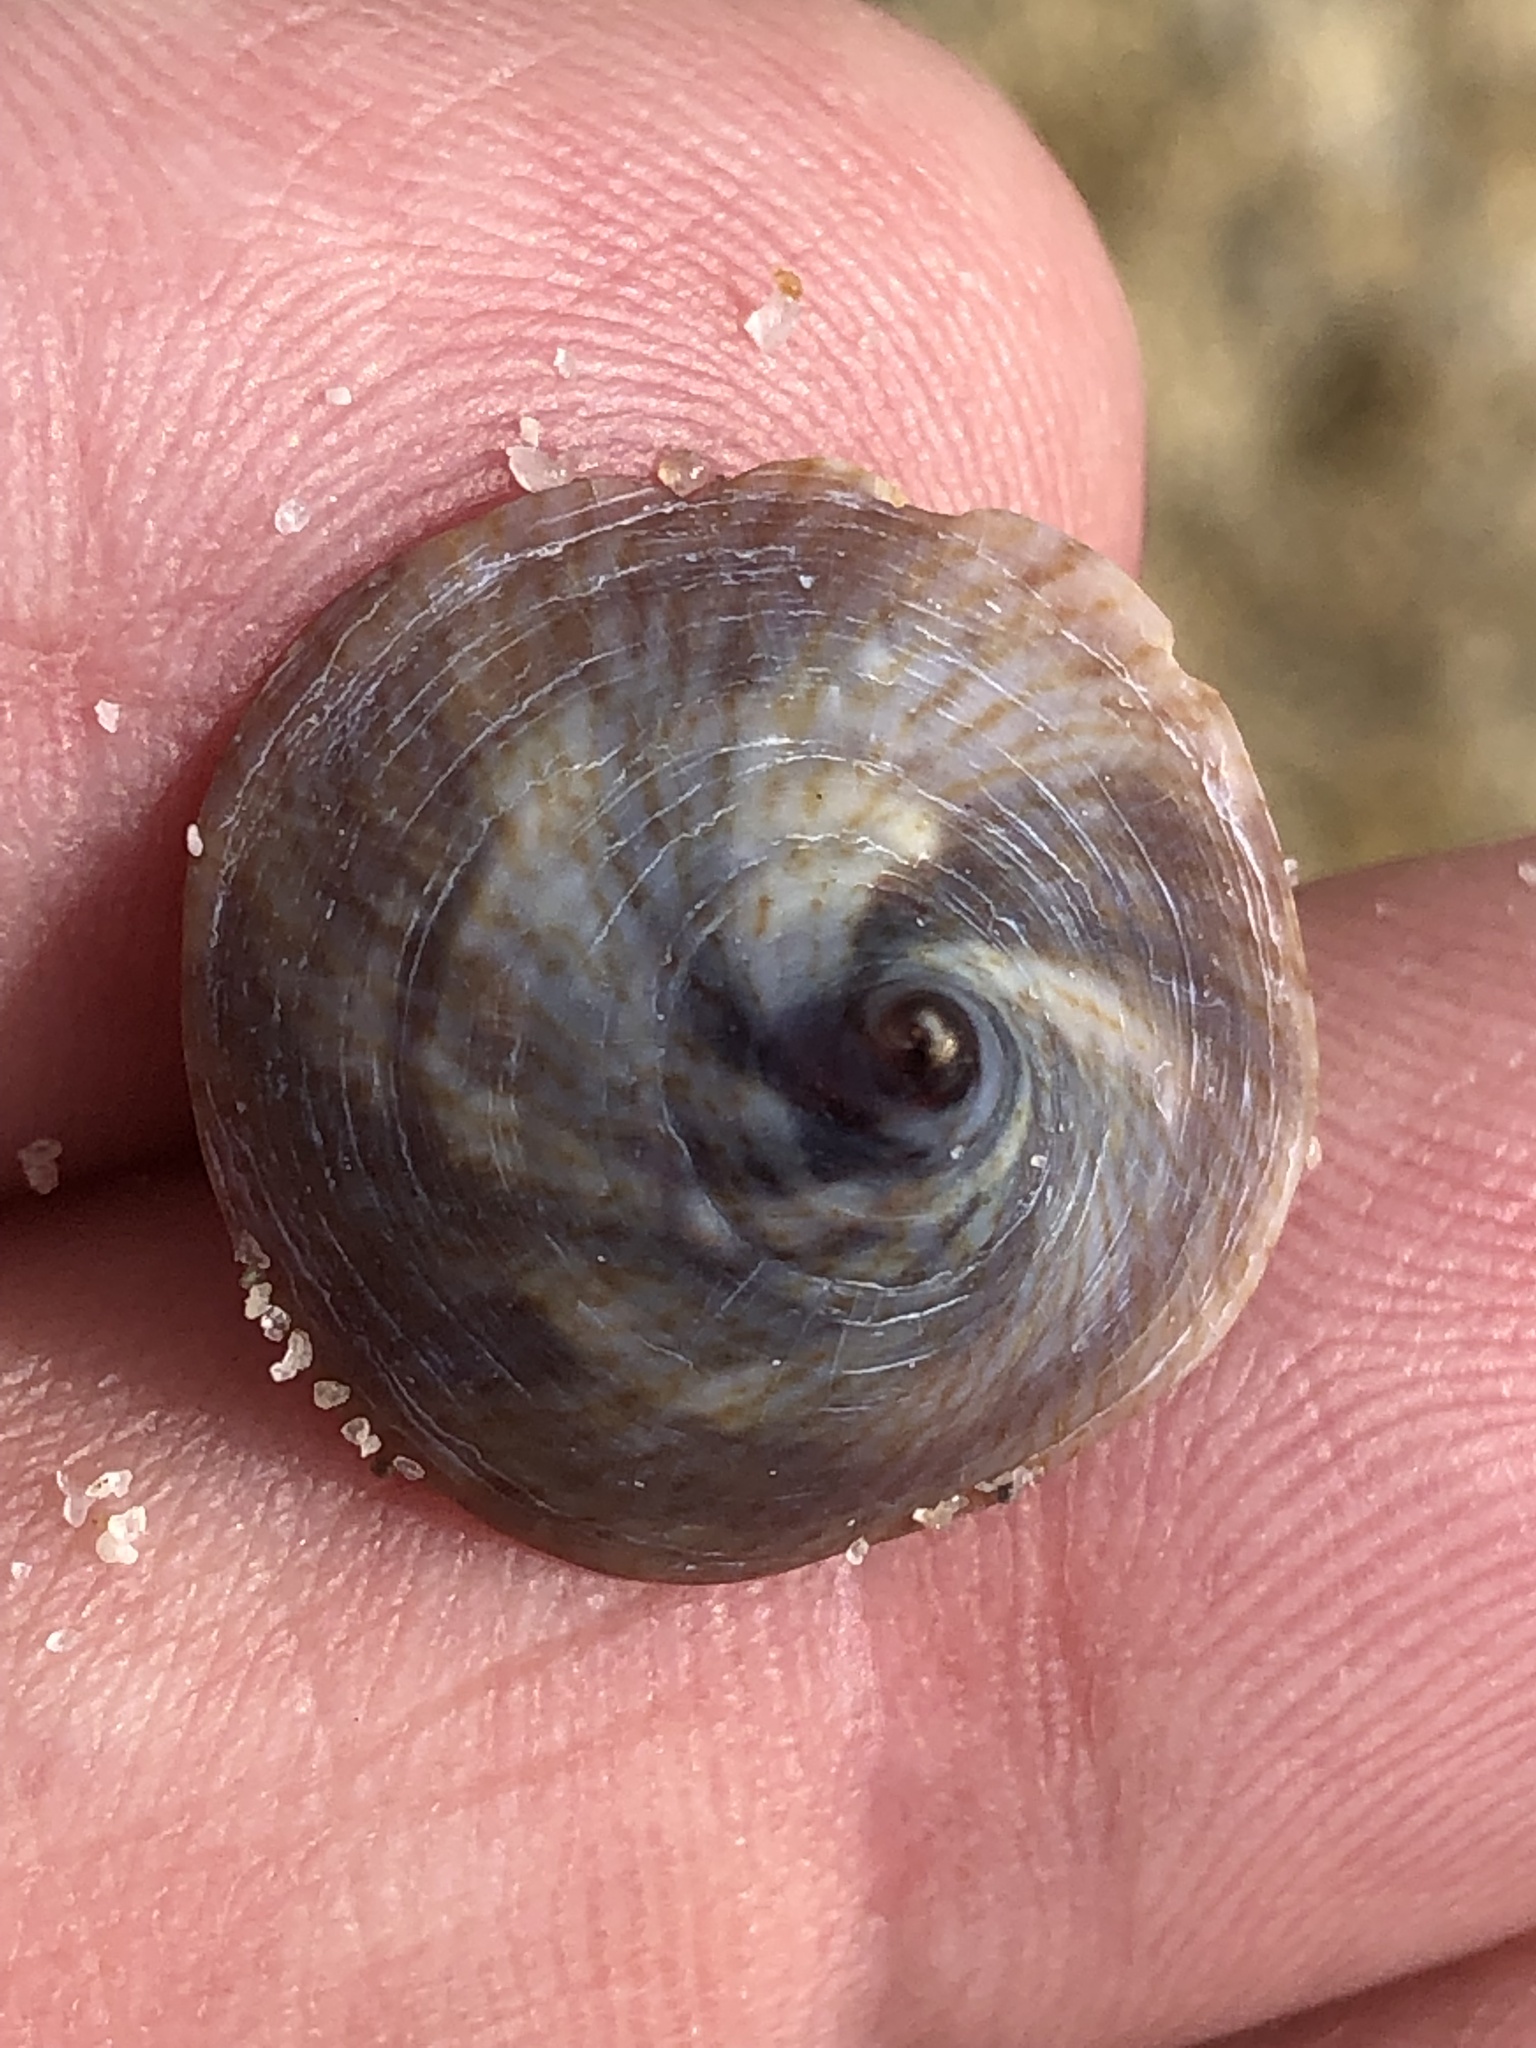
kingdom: Animalia
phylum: Mollusca
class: Gastropoda
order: Littorinimorpha
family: Calyptraeidae
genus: Desmaulus
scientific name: Desmaulus extinctorium
